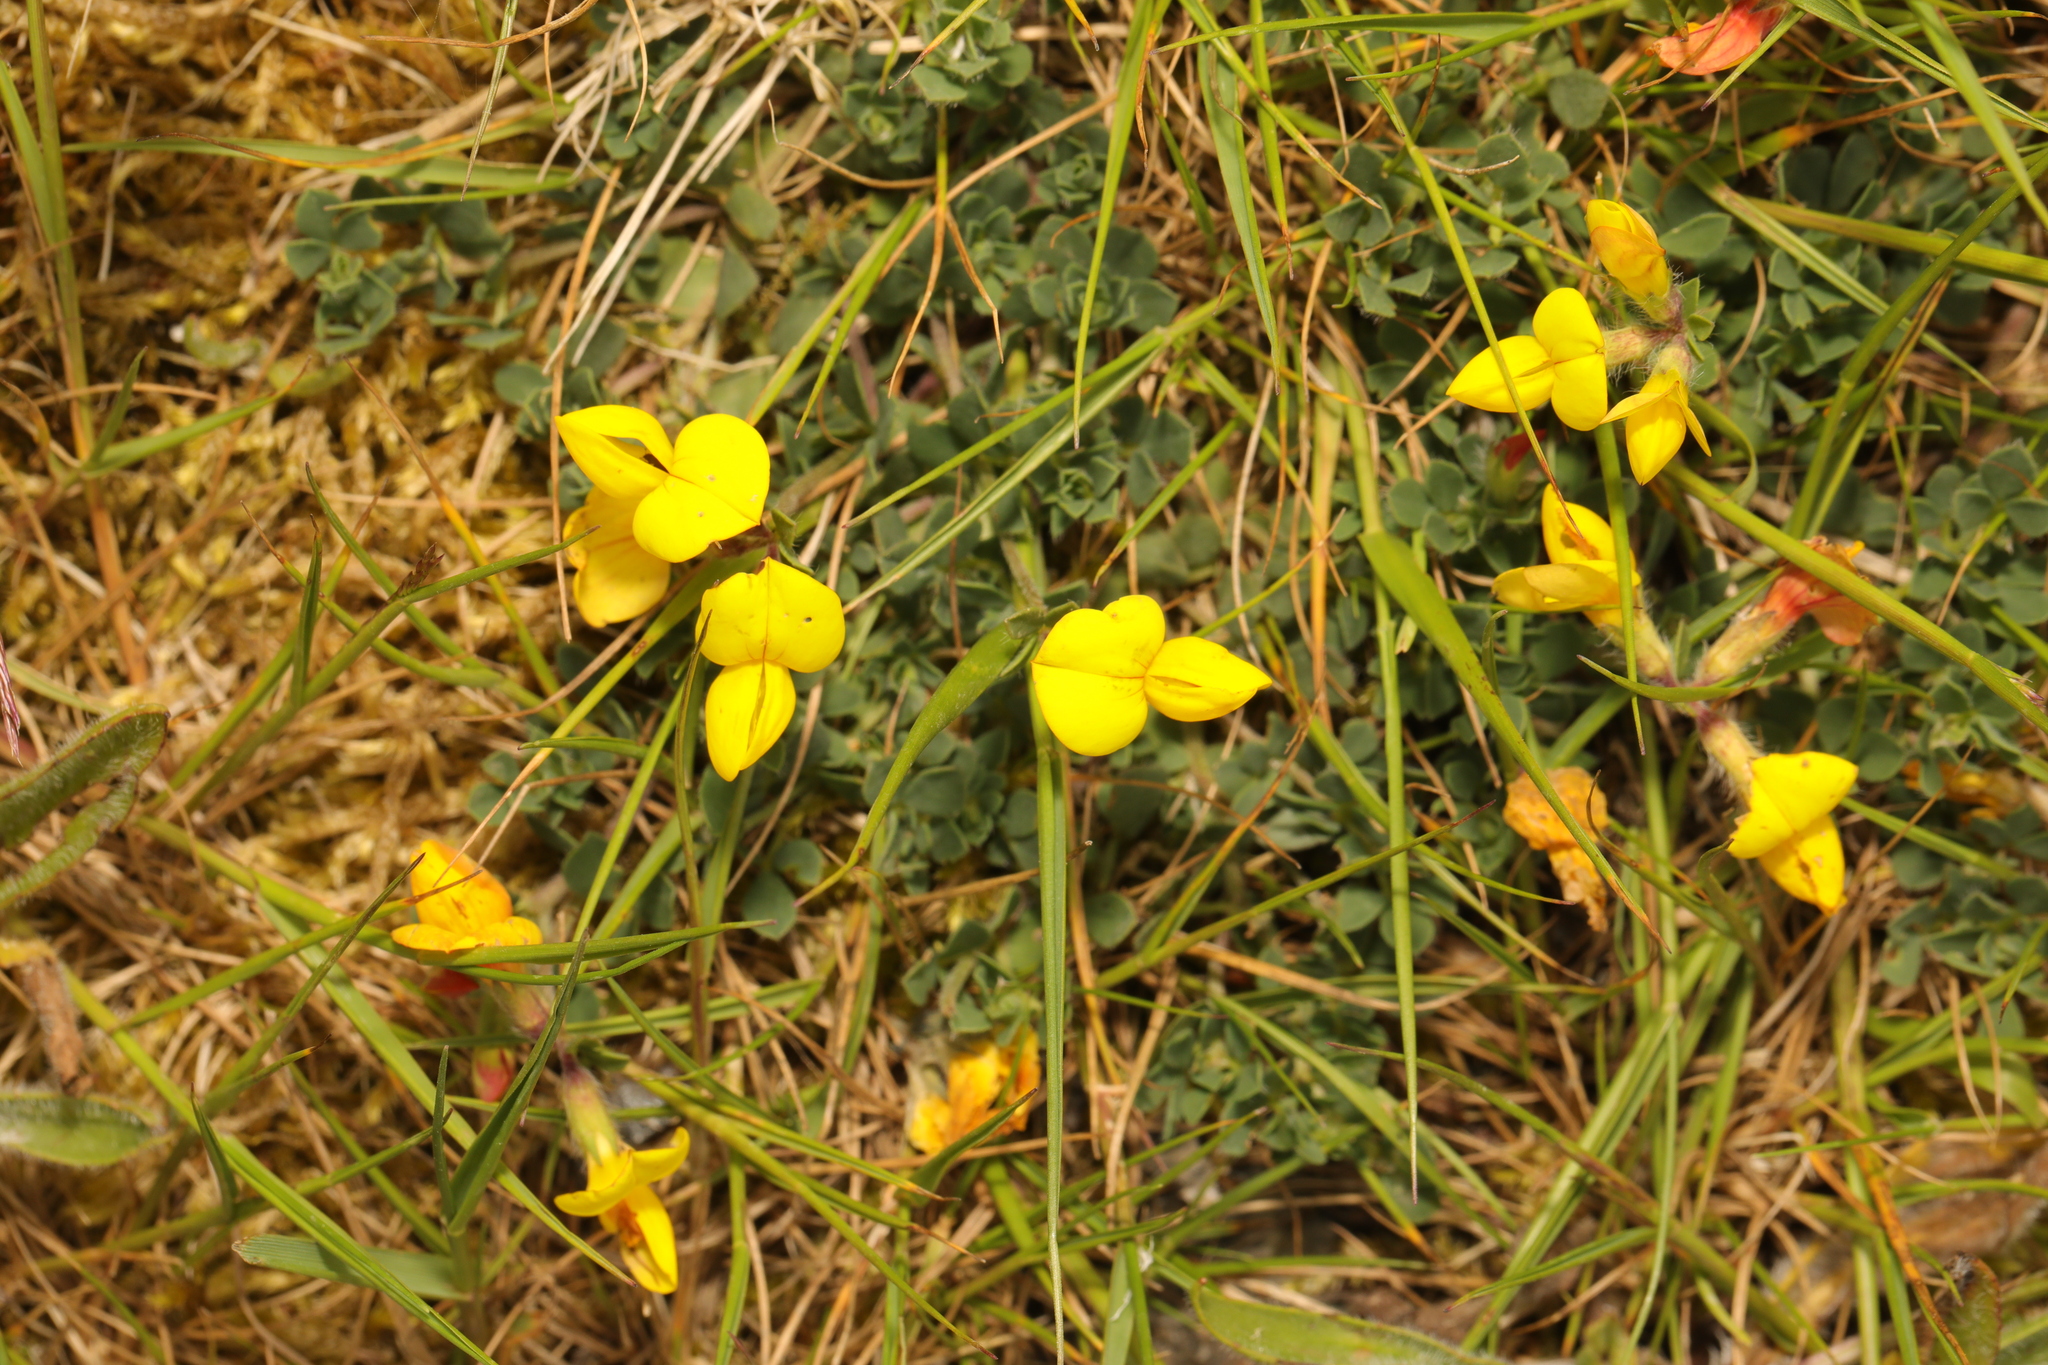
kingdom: Plantae
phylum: Tracheophyta
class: Magnoliopsida
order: Fabales
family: Fabaceae
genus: Lotus
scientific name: Lotus corniculatus
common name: Common bird's-foot-trefoil
